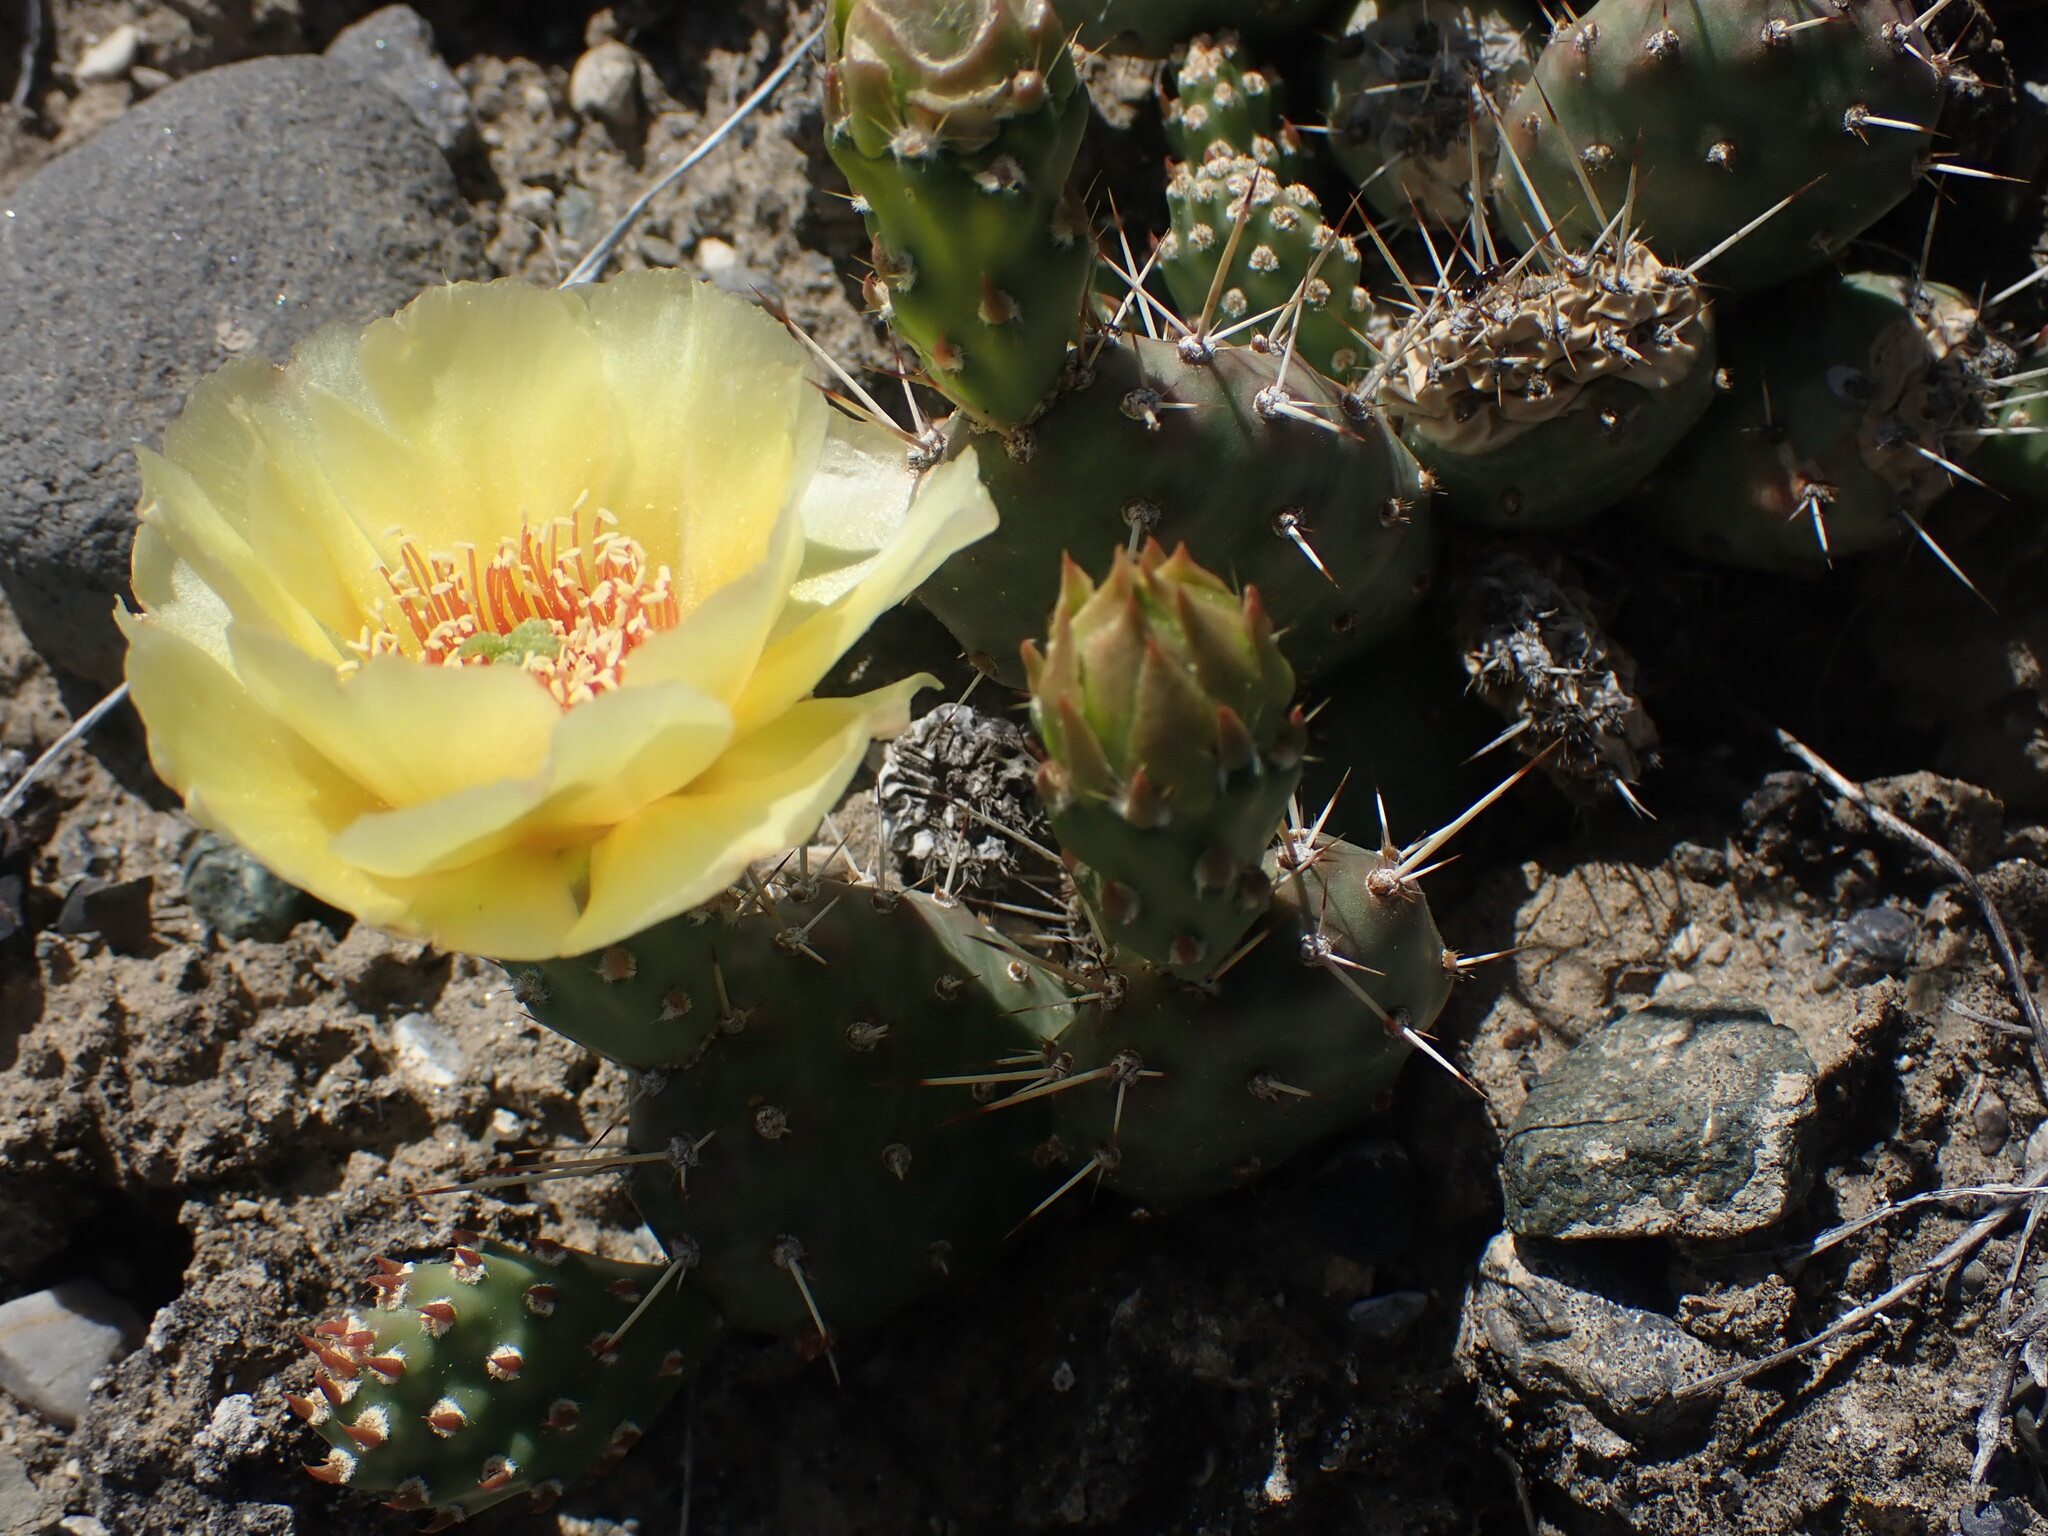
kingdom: Plantae
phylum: Tracheophyta
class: Magnoliopsida
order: Caryophyllales
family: Cactaceae
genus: Opuntia
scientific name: Opuntia fragilis
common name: Brittle cactus
